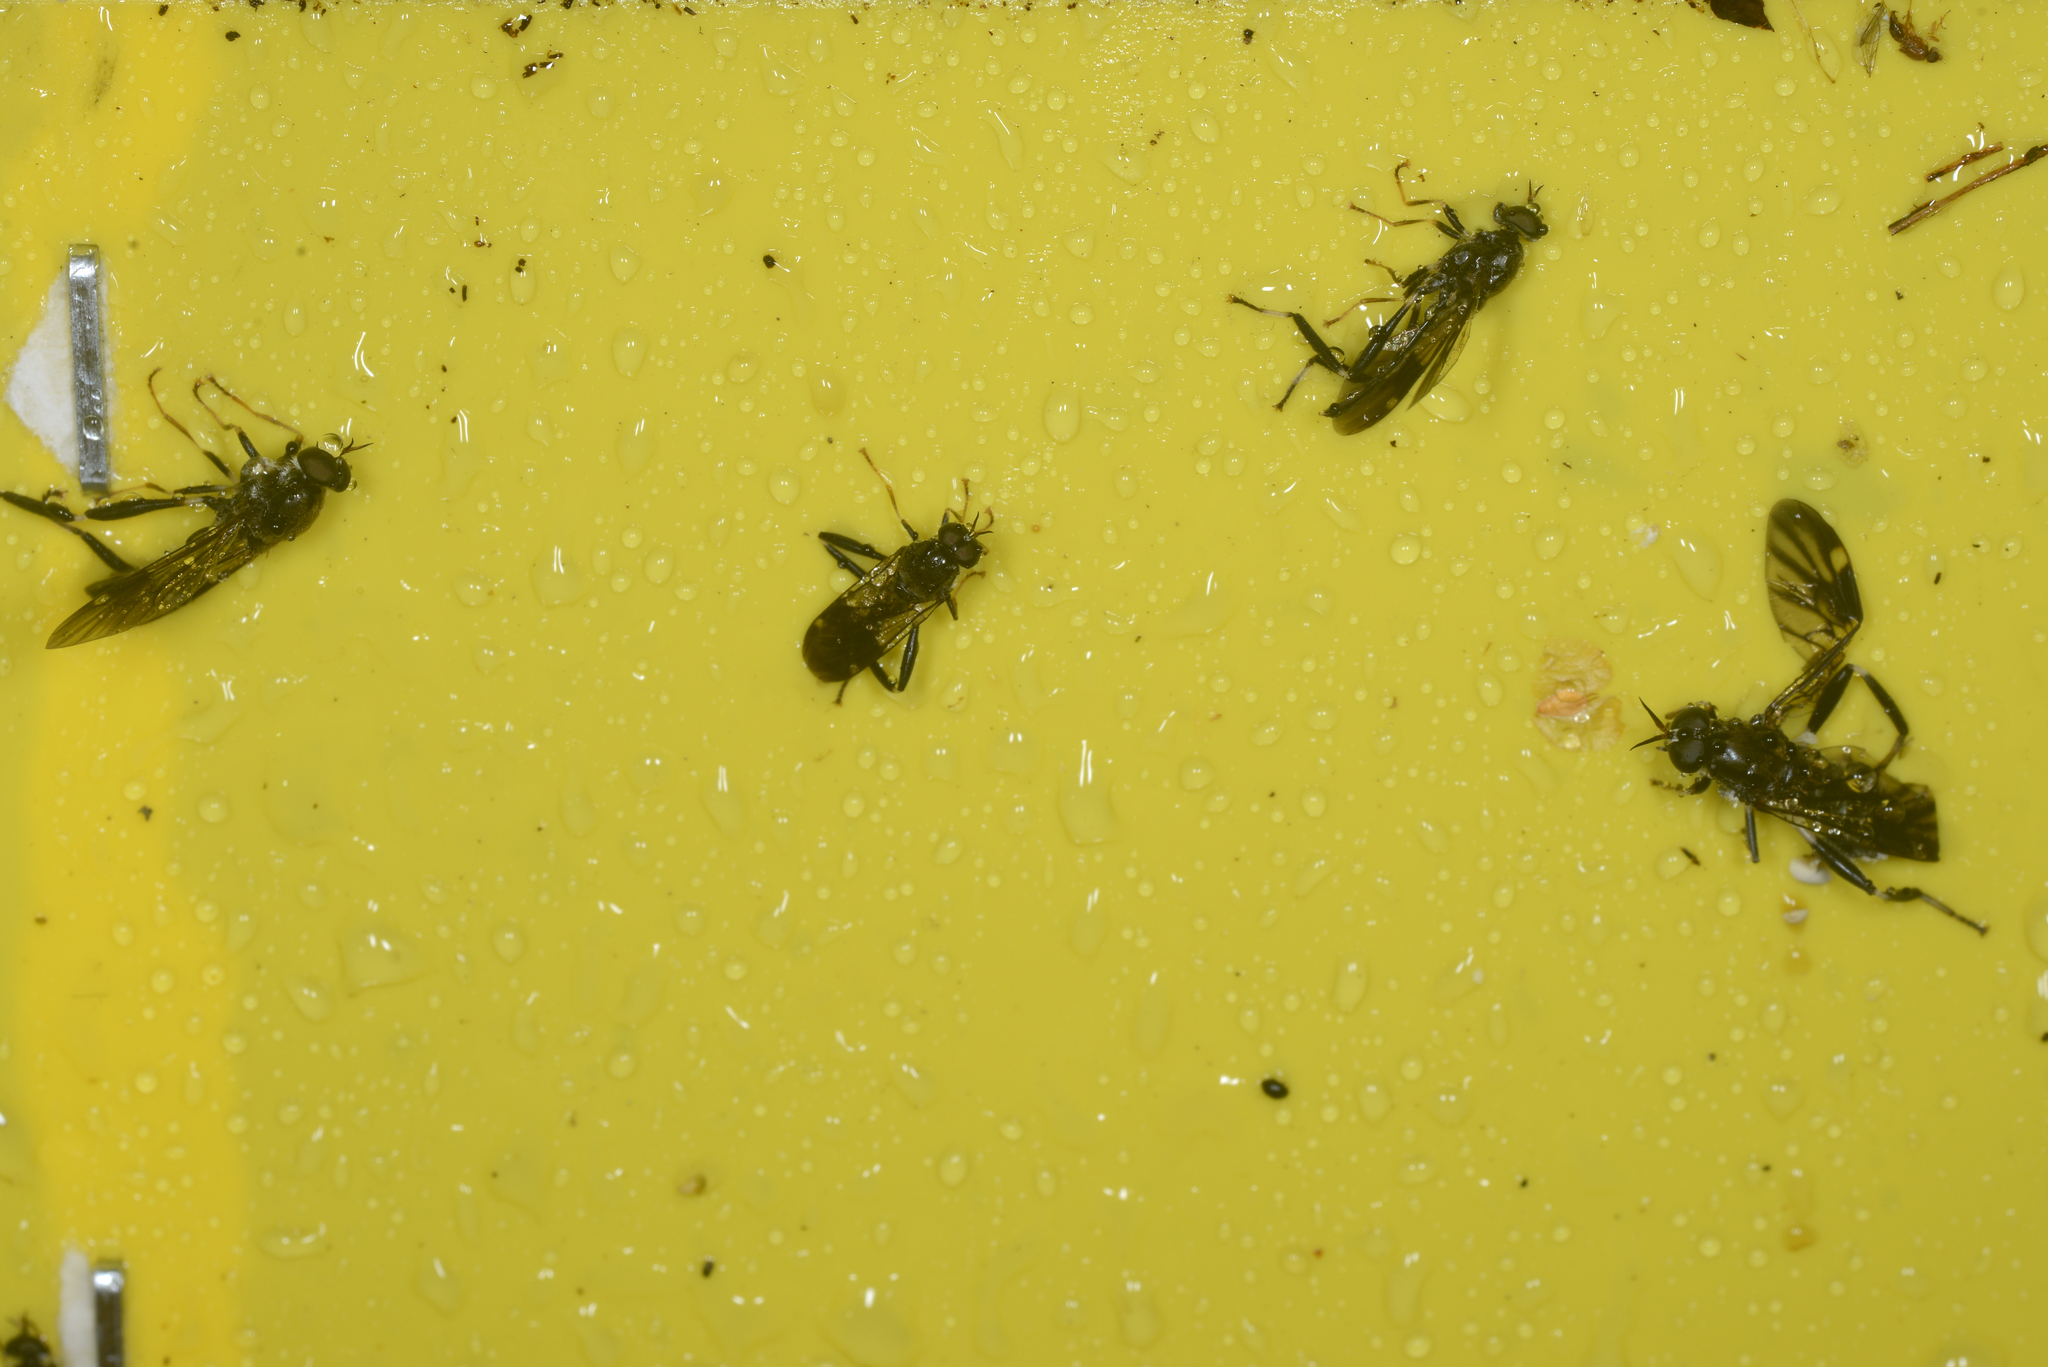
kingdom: Animalia
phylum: Arthropoda
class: Insecta
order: Diptera
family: Stratiomyidae
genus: Exaireta
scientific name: Exaireta spinigera
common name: Blue soldier fly
